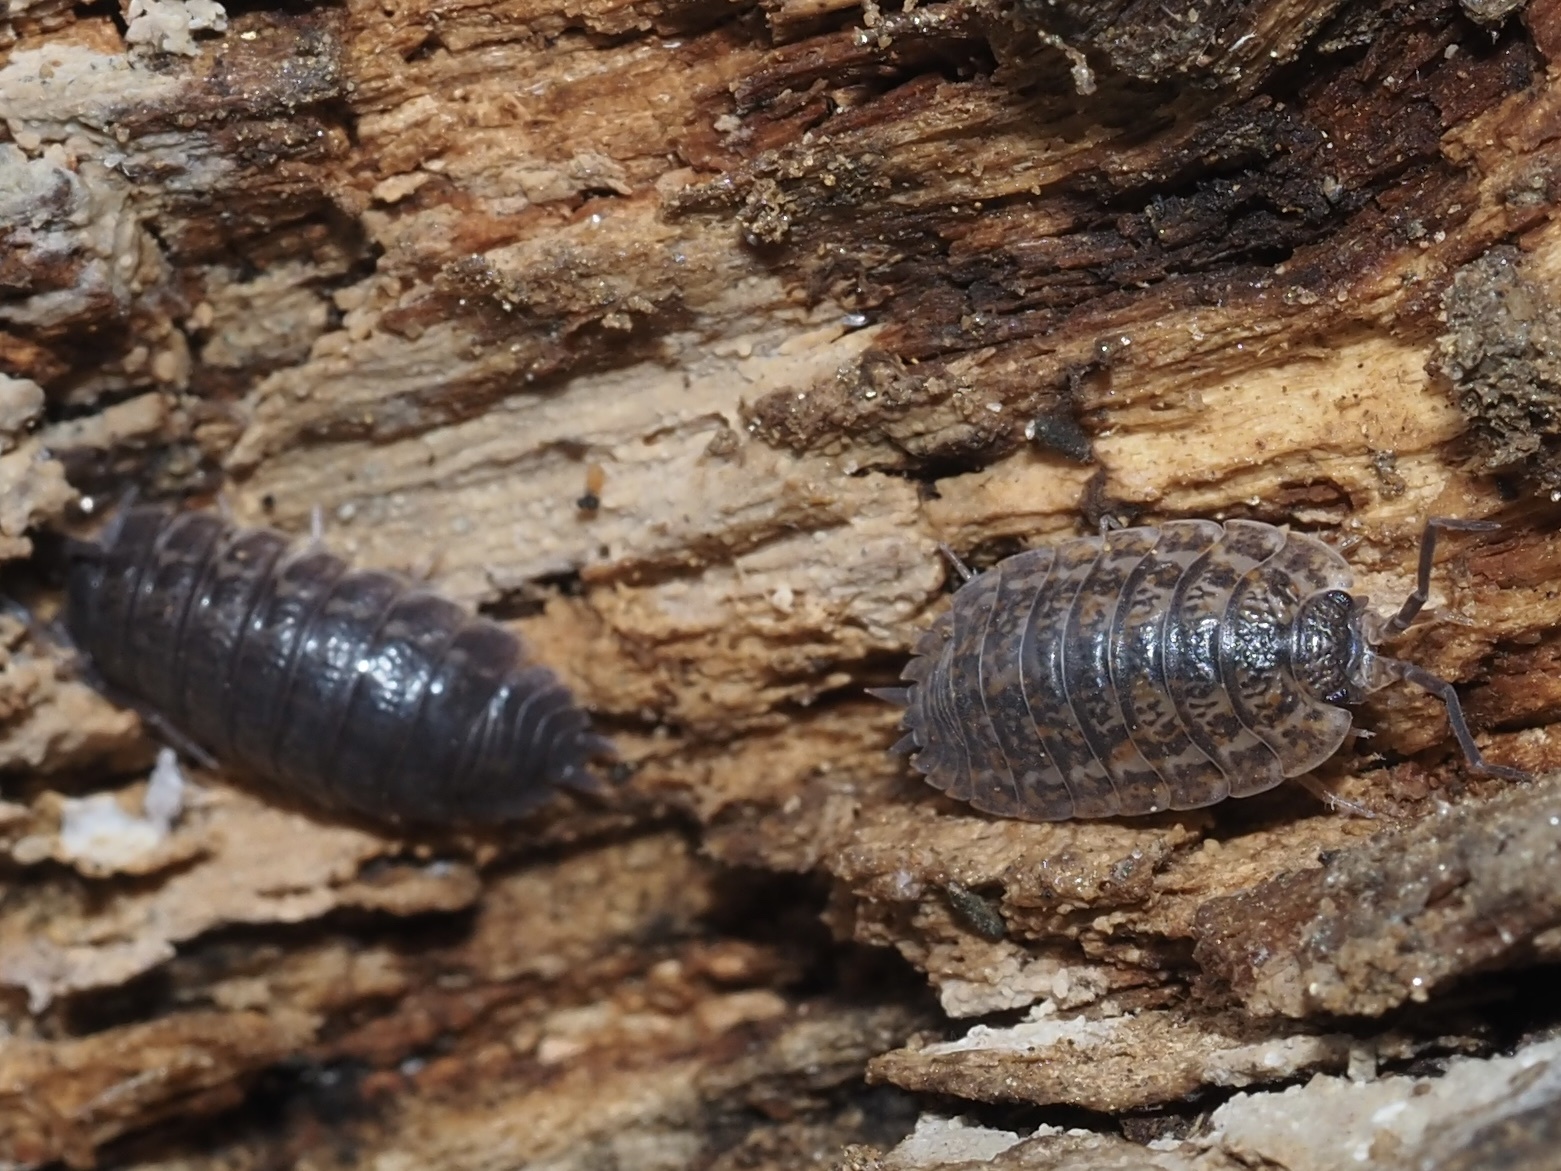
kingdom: Animalia
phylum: Arthropoda
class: Malacostraca
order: Isopoda
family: Trachelipodidae
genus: Trachelipus
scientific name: Trachelipus rathkii
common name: Isopod
